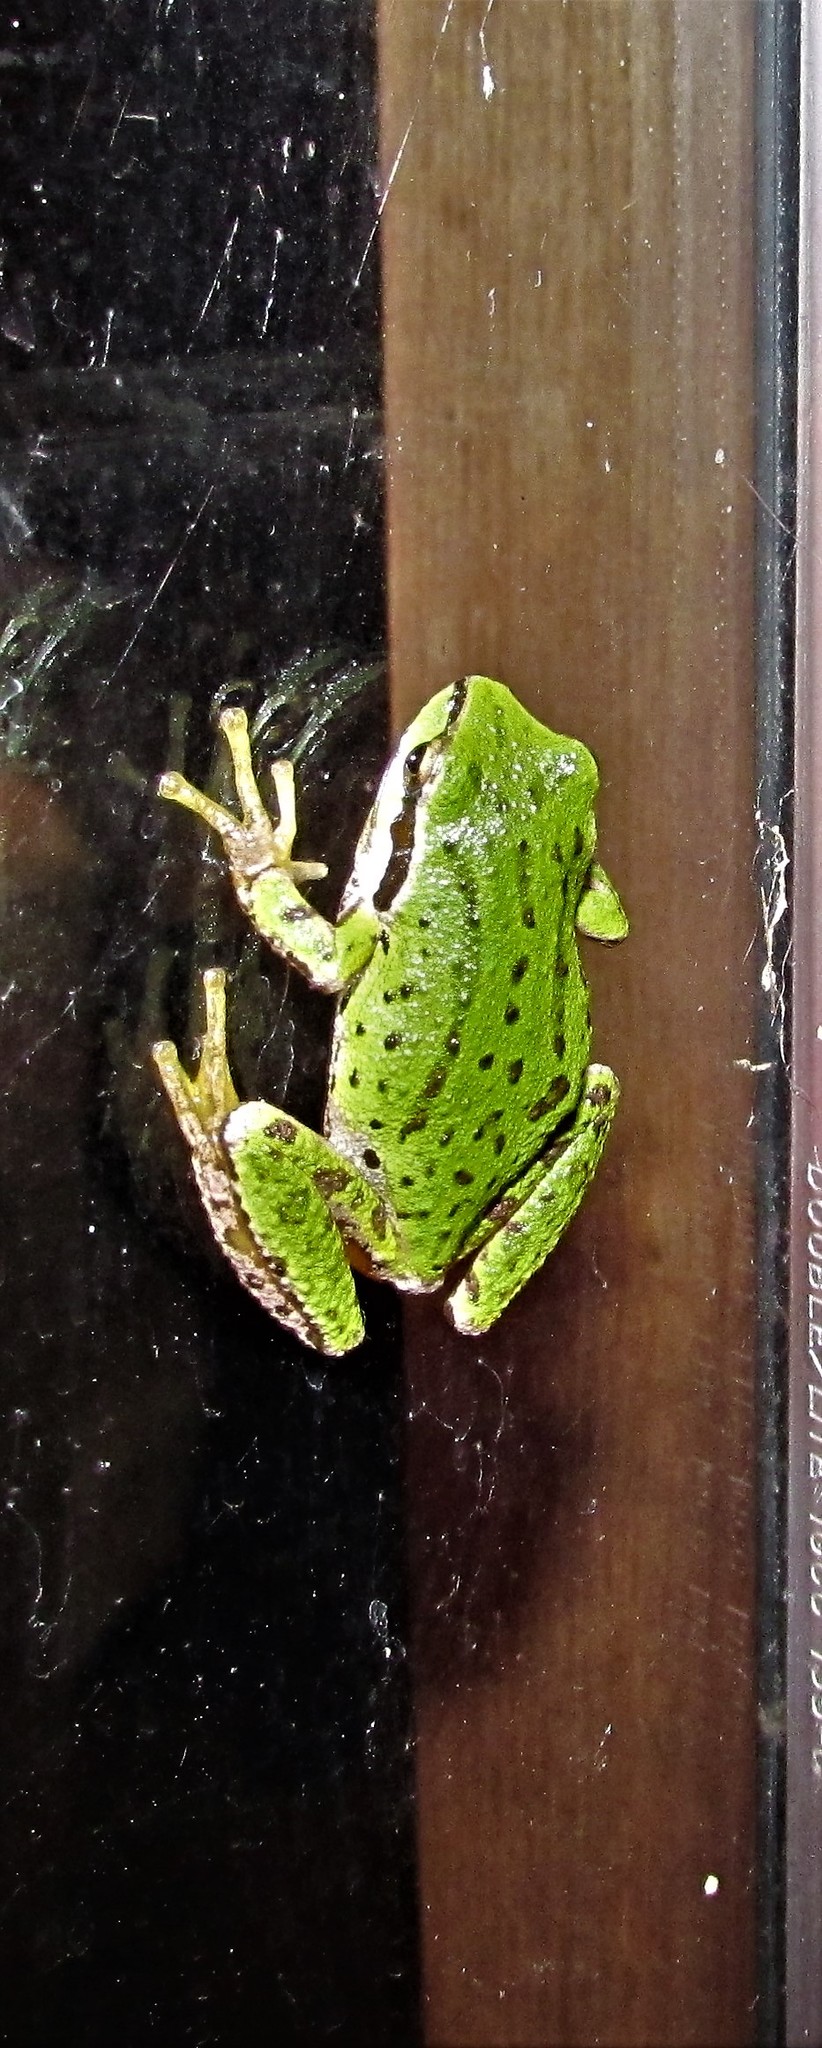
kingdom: Animalia
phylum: Chordata
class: Amphibia
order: Anura
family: Hylidae
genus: Pseudacris
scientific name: Pseudacris regilla
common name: Pacific chorus frog
